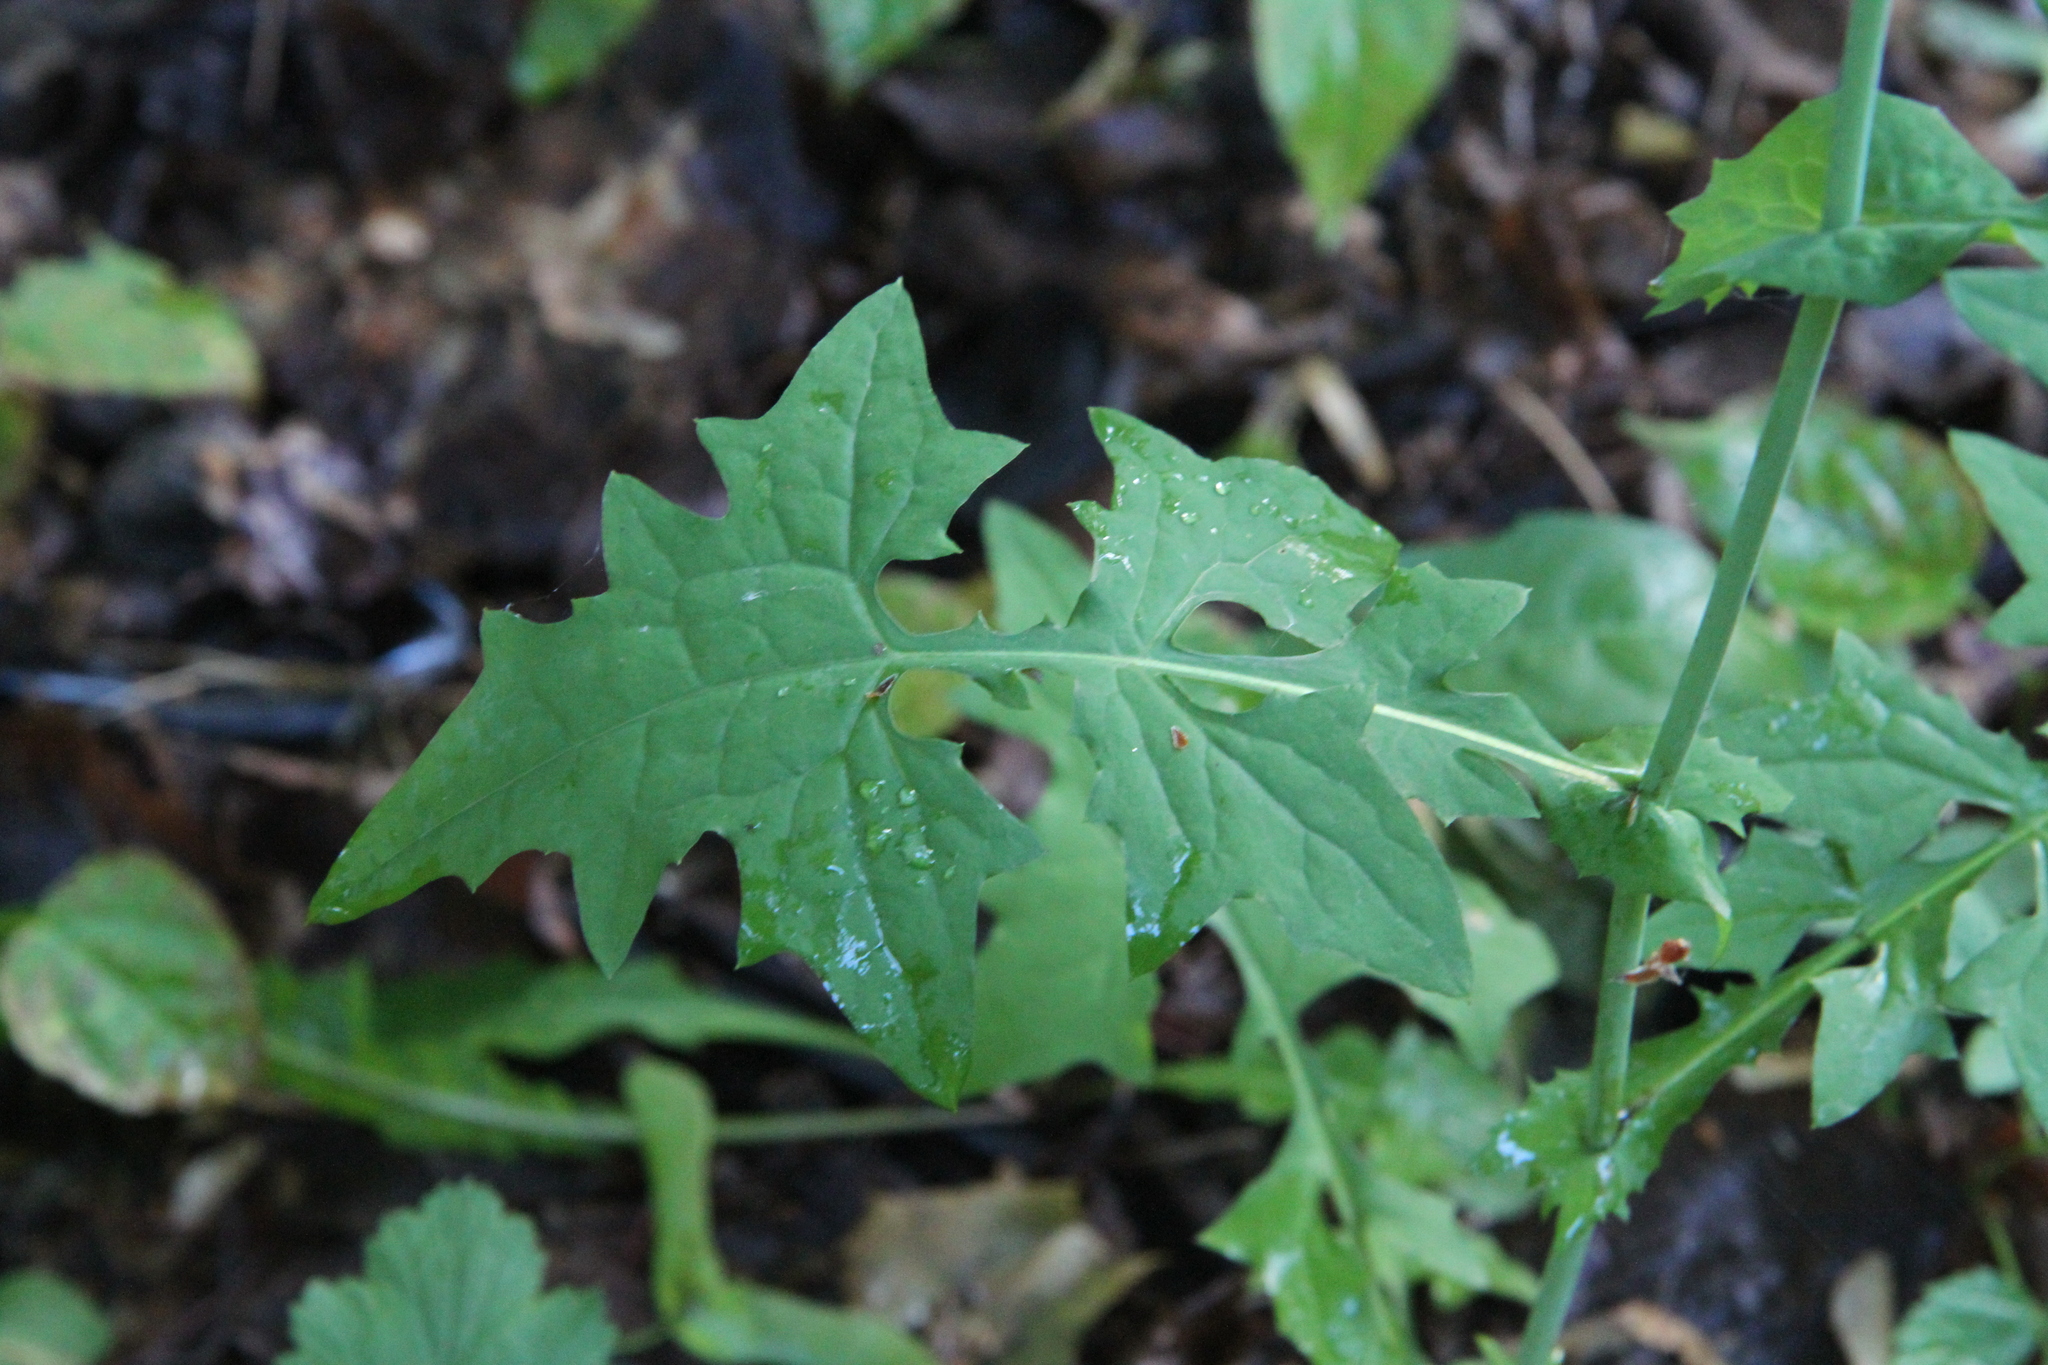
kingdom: Plantae
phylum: Tracheophyta
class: Magnoliopsida
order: Asterales
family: Asteraceae
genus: Mycelis
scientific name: Mycelis muralis
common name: Wall lettuce
